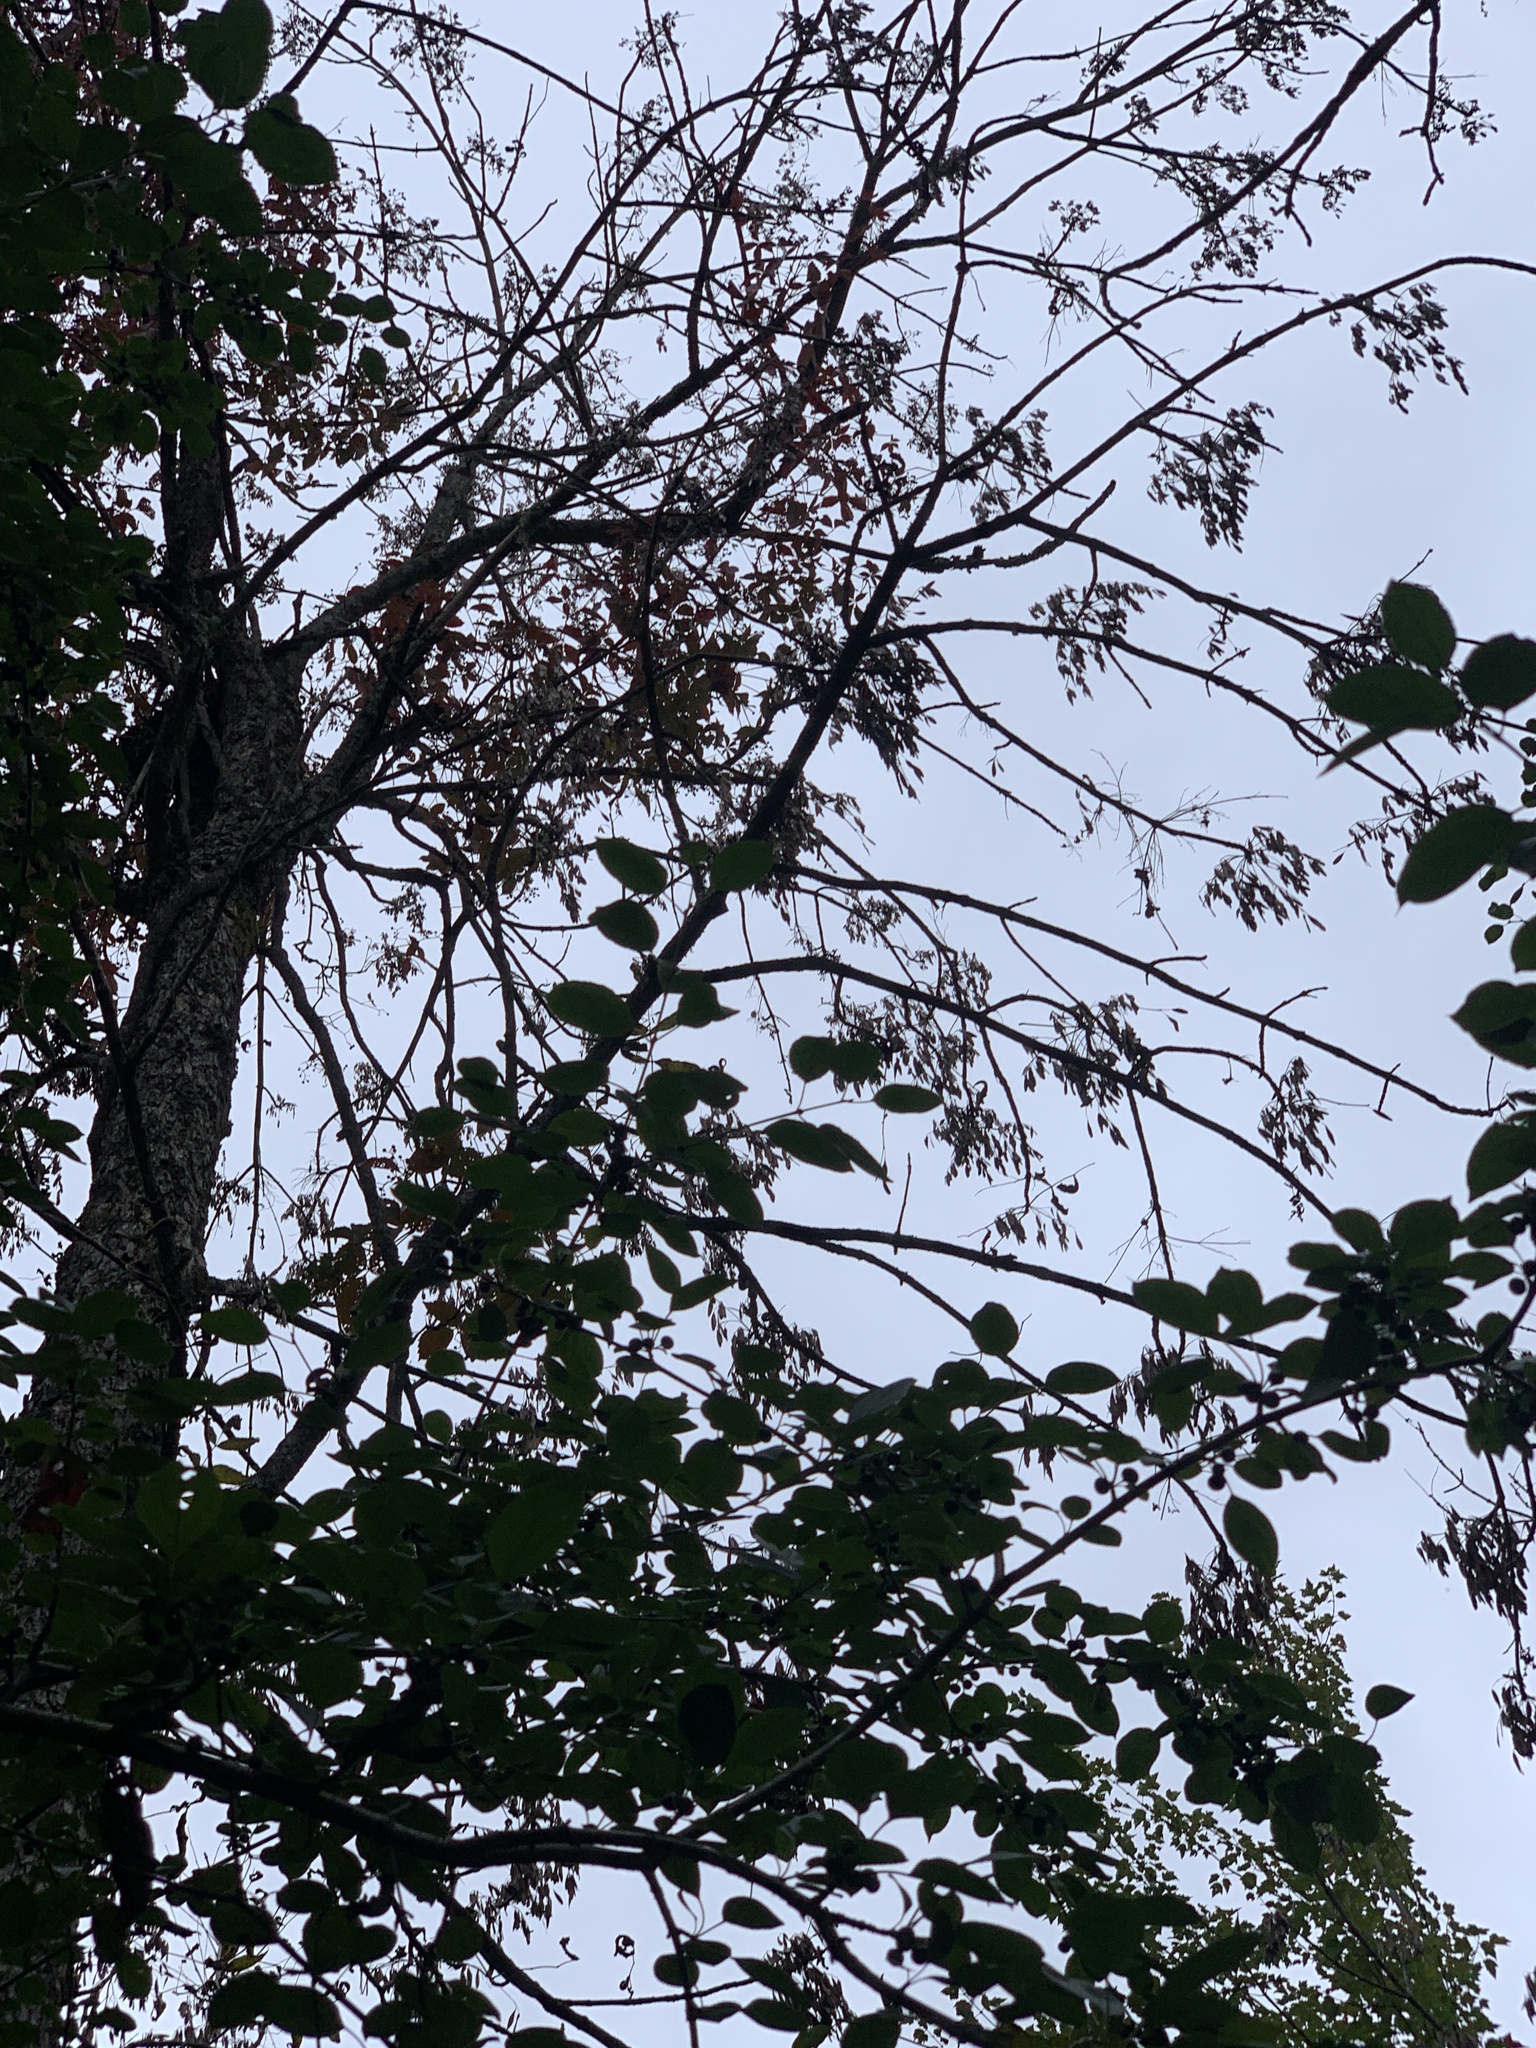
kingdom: Plantae
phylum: Tracheophyta
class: Magnoliopsida
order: Lamiales
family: Oleaceae
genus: Fraxinus
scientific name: Fraxinus nigra
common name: Black ash
